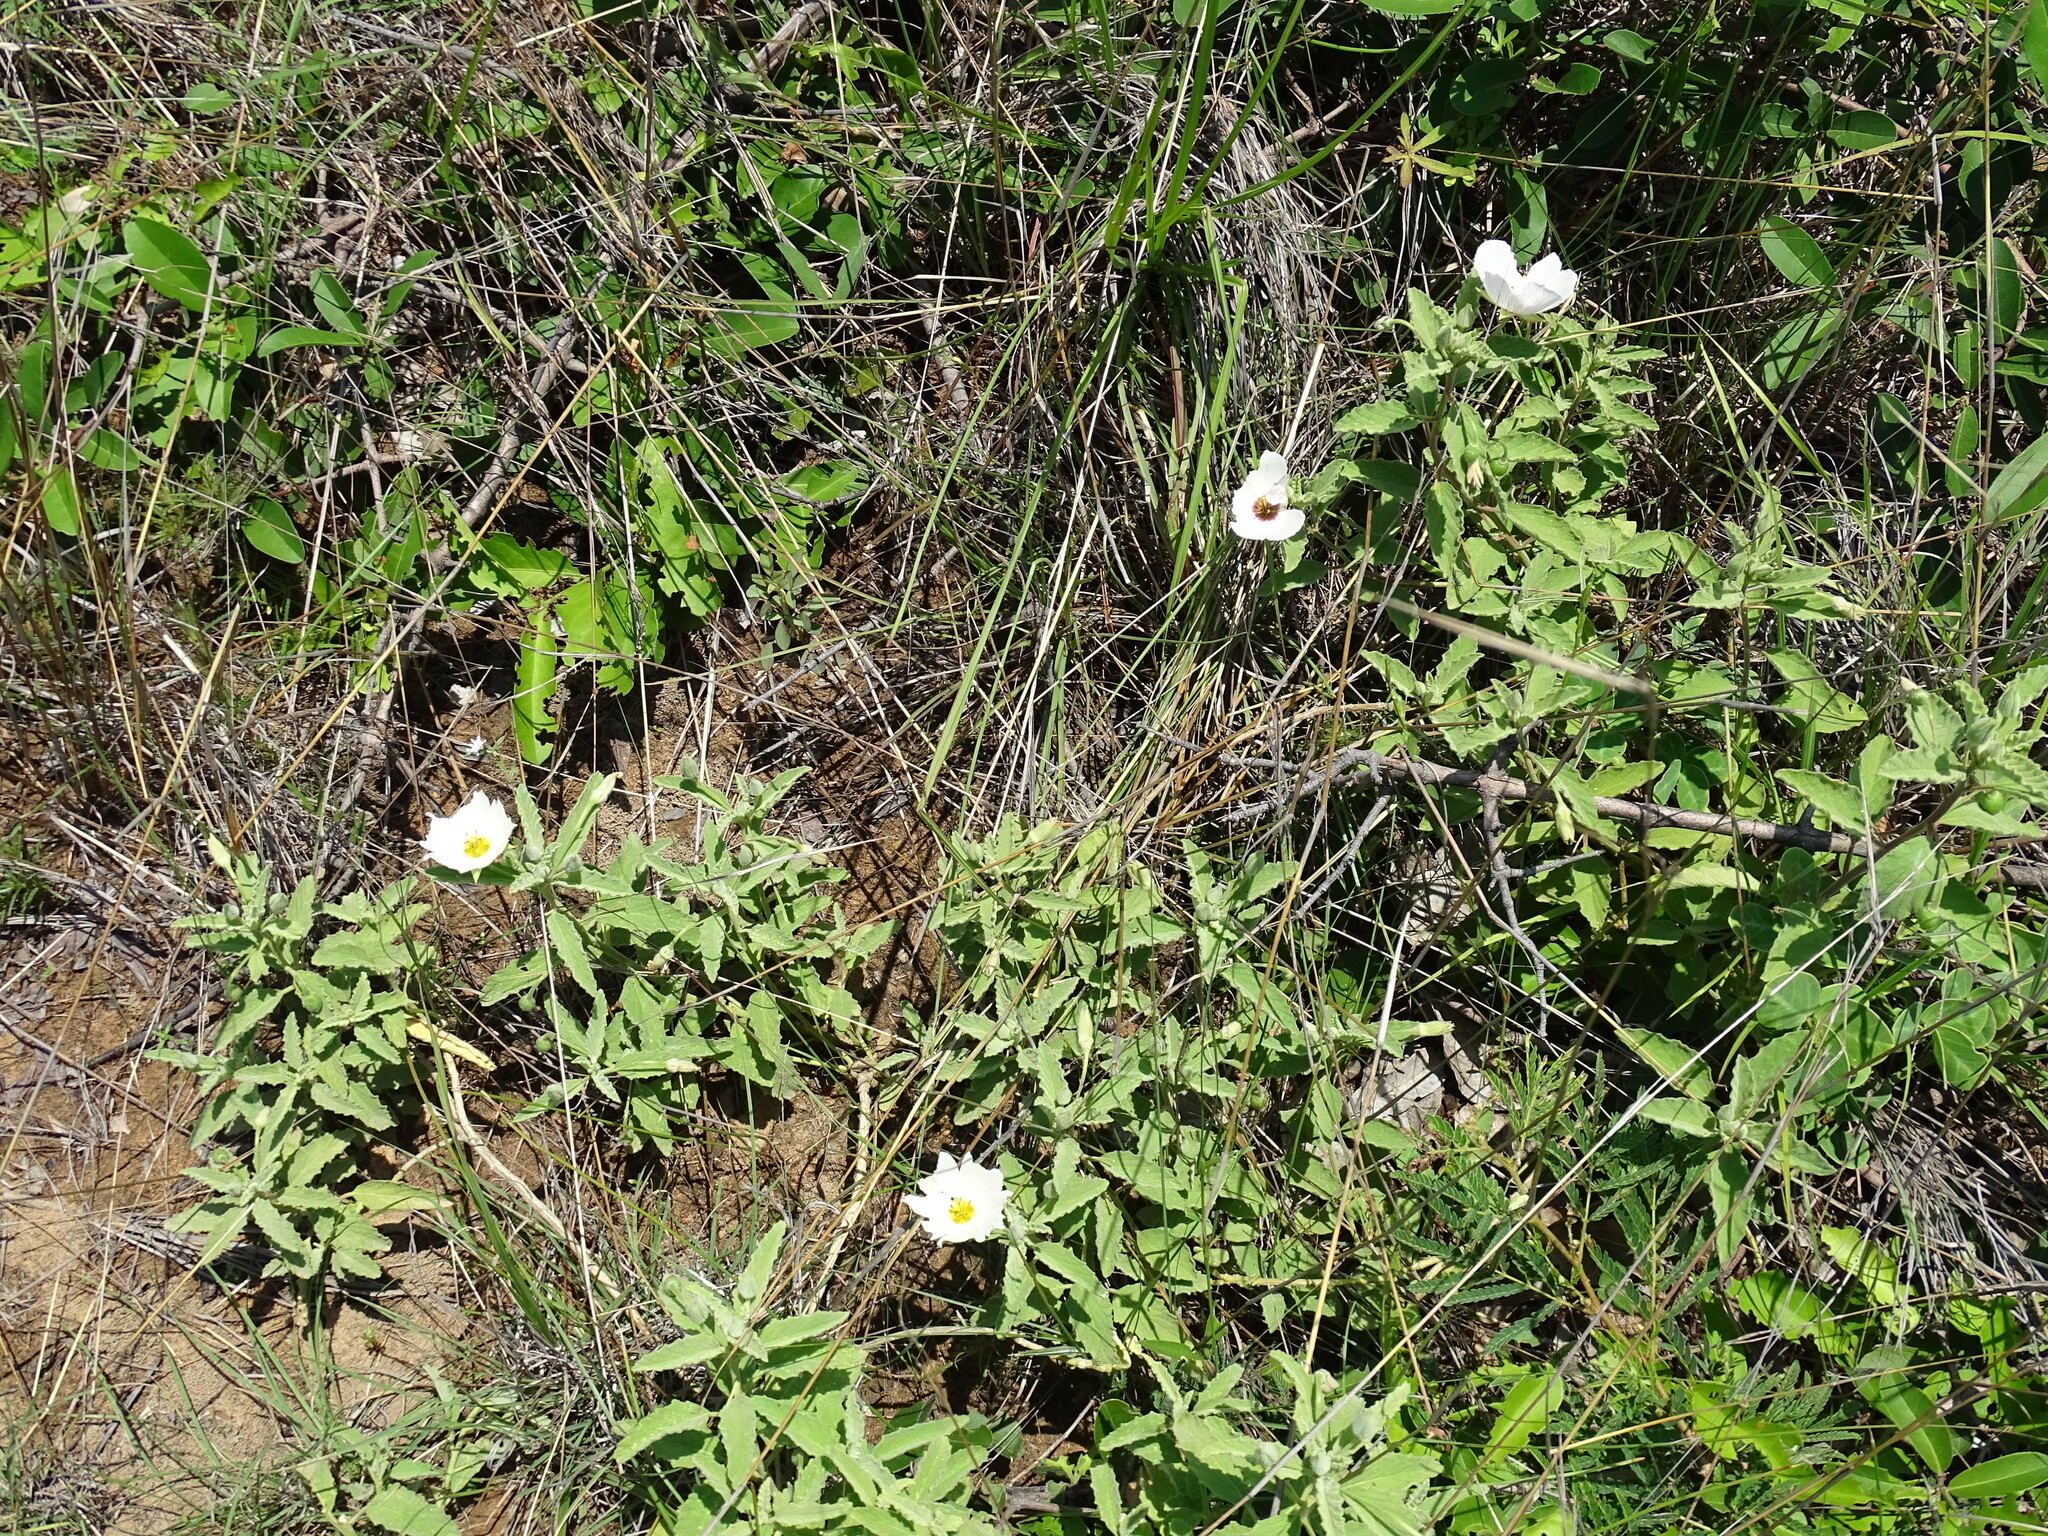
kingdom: Plantae
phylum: Tracheophyta
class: Magnoliopsida
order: Malpighiales
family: Turneraceae
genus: Piriqueta
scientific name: Piriqueta mortonii
